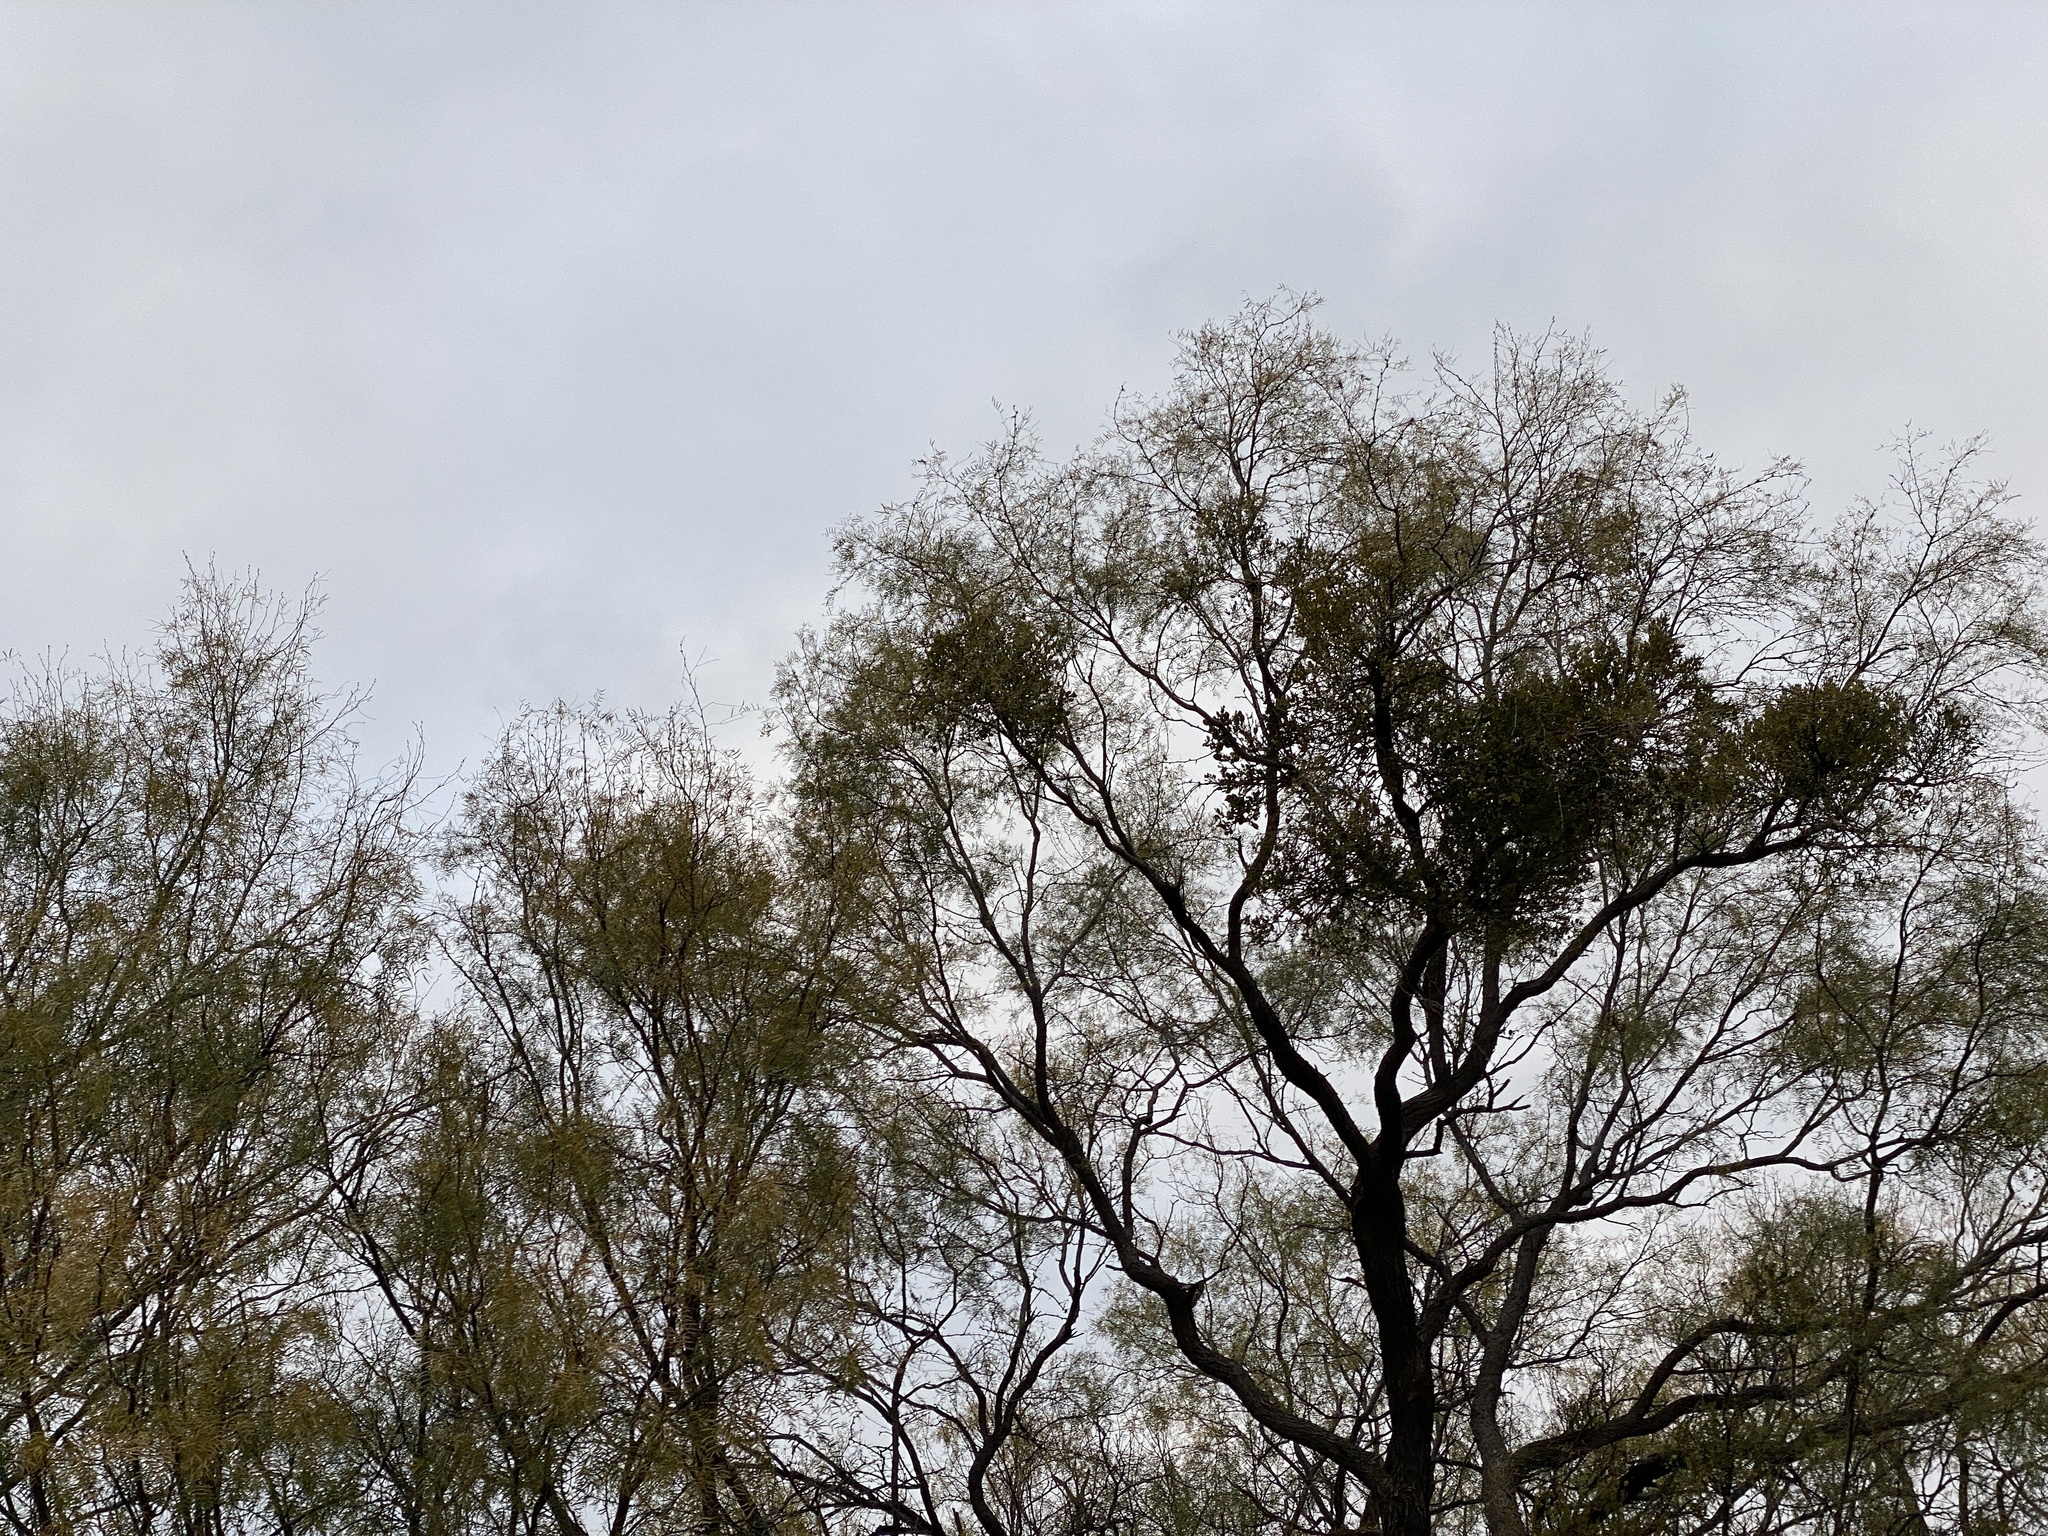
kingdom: Plantae
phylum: Tracheophyta
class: Magnoliopsida
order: Fabales
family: Fabaceae
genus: Prosopis
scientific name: Prosopis glandulosa
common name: Honey mesquite
